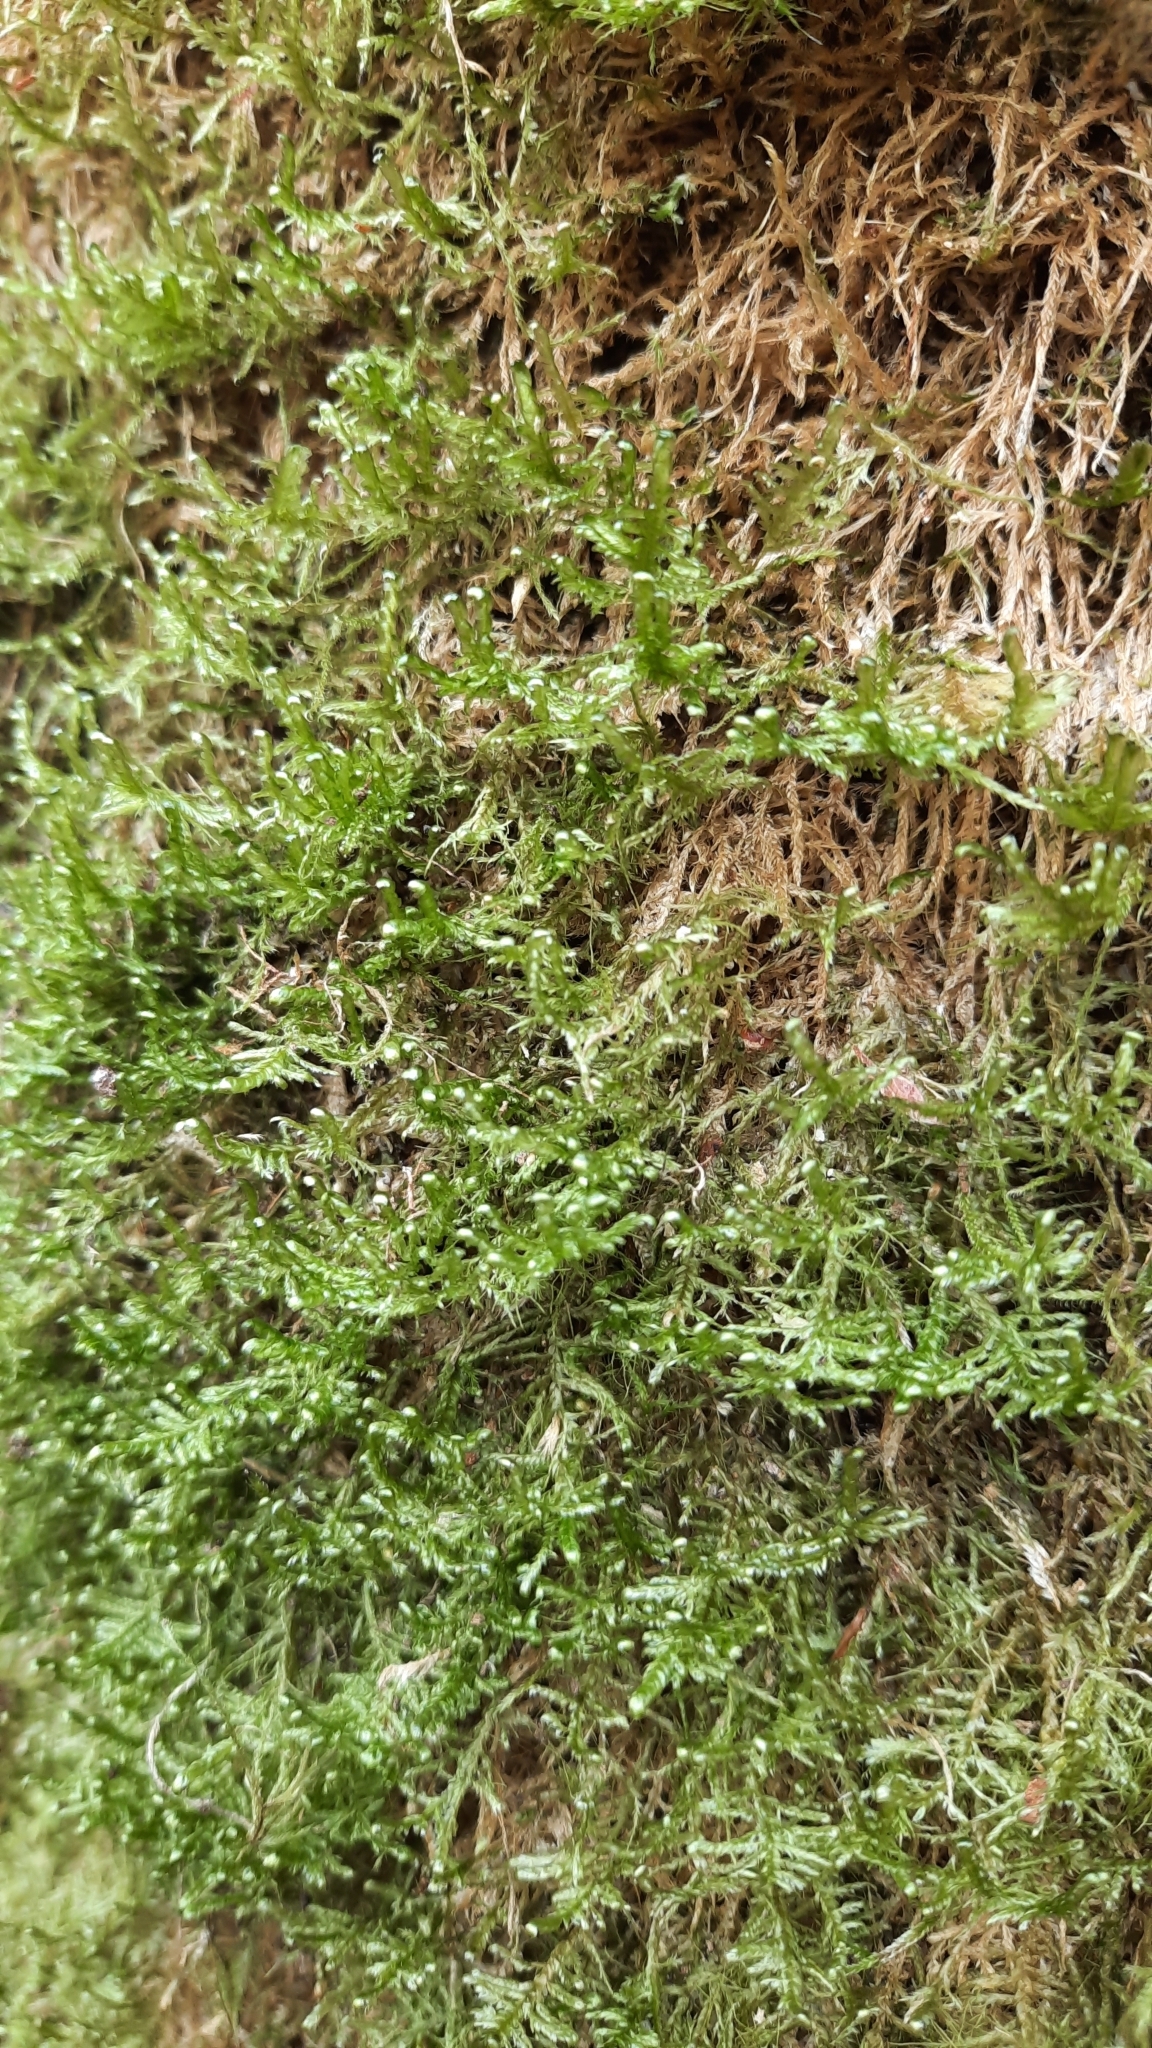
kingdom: Plantae
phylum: Bryophyta
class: Bryopsida
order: Hypnales
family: Neckeraceae
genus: Alleniella
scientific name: Alleniella complanata
